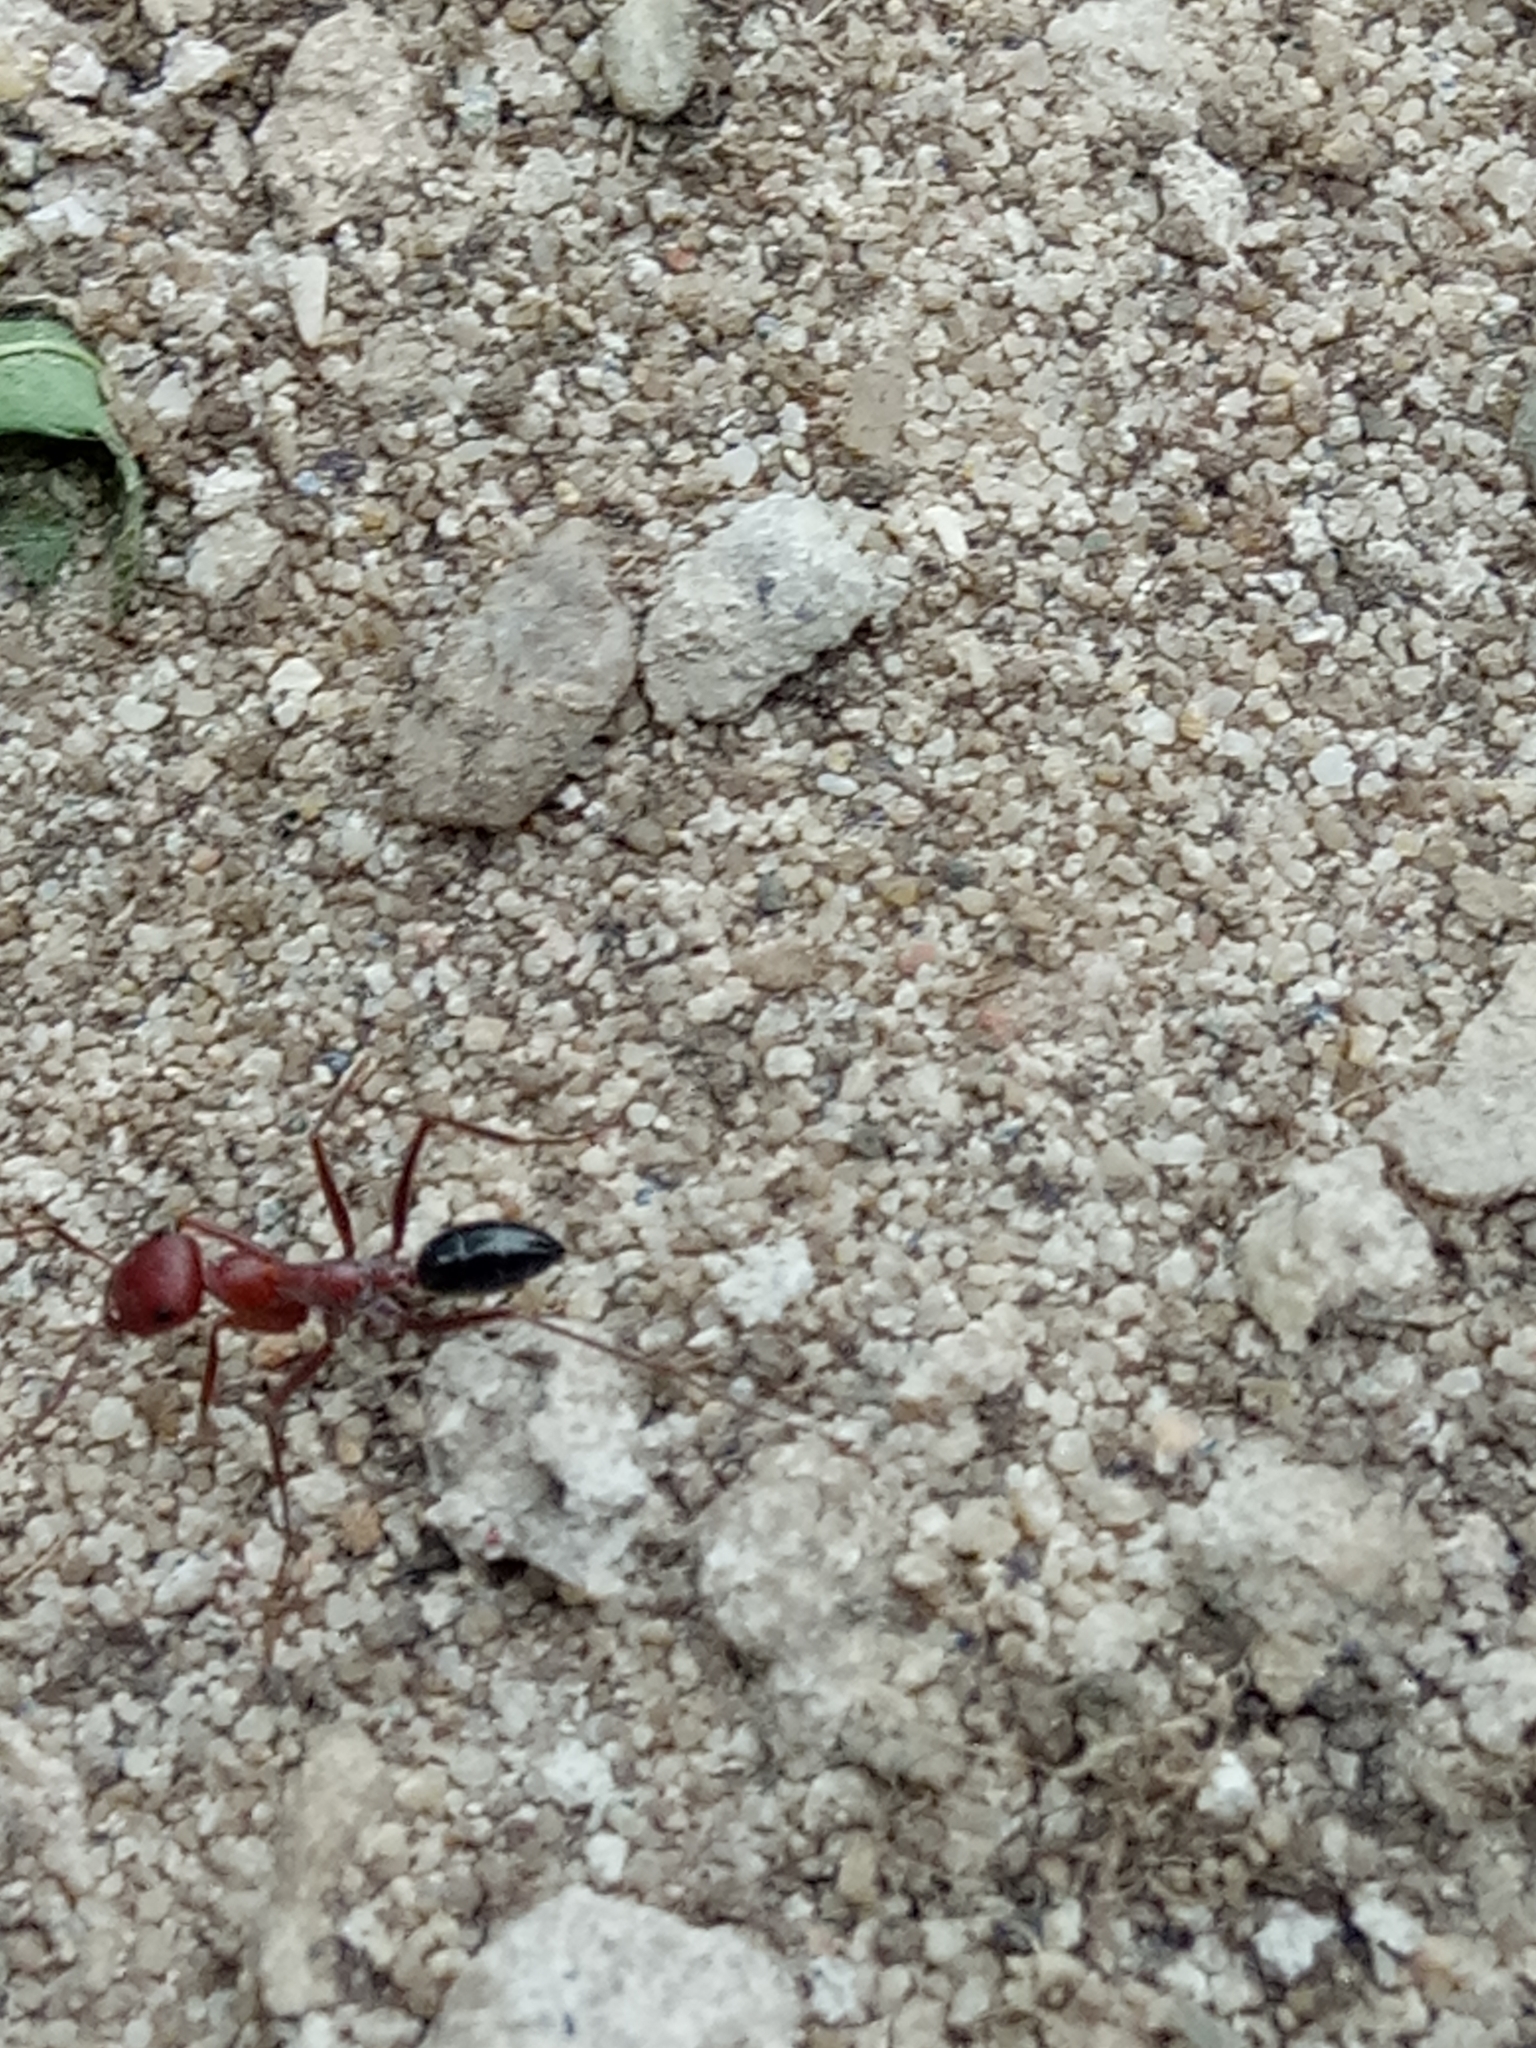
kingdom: Animalia
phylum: Arthropoda
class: Insecta
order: Hymenoptera
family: Formicidae
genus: Cataglyphis
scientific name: Cataglyphis nodus
